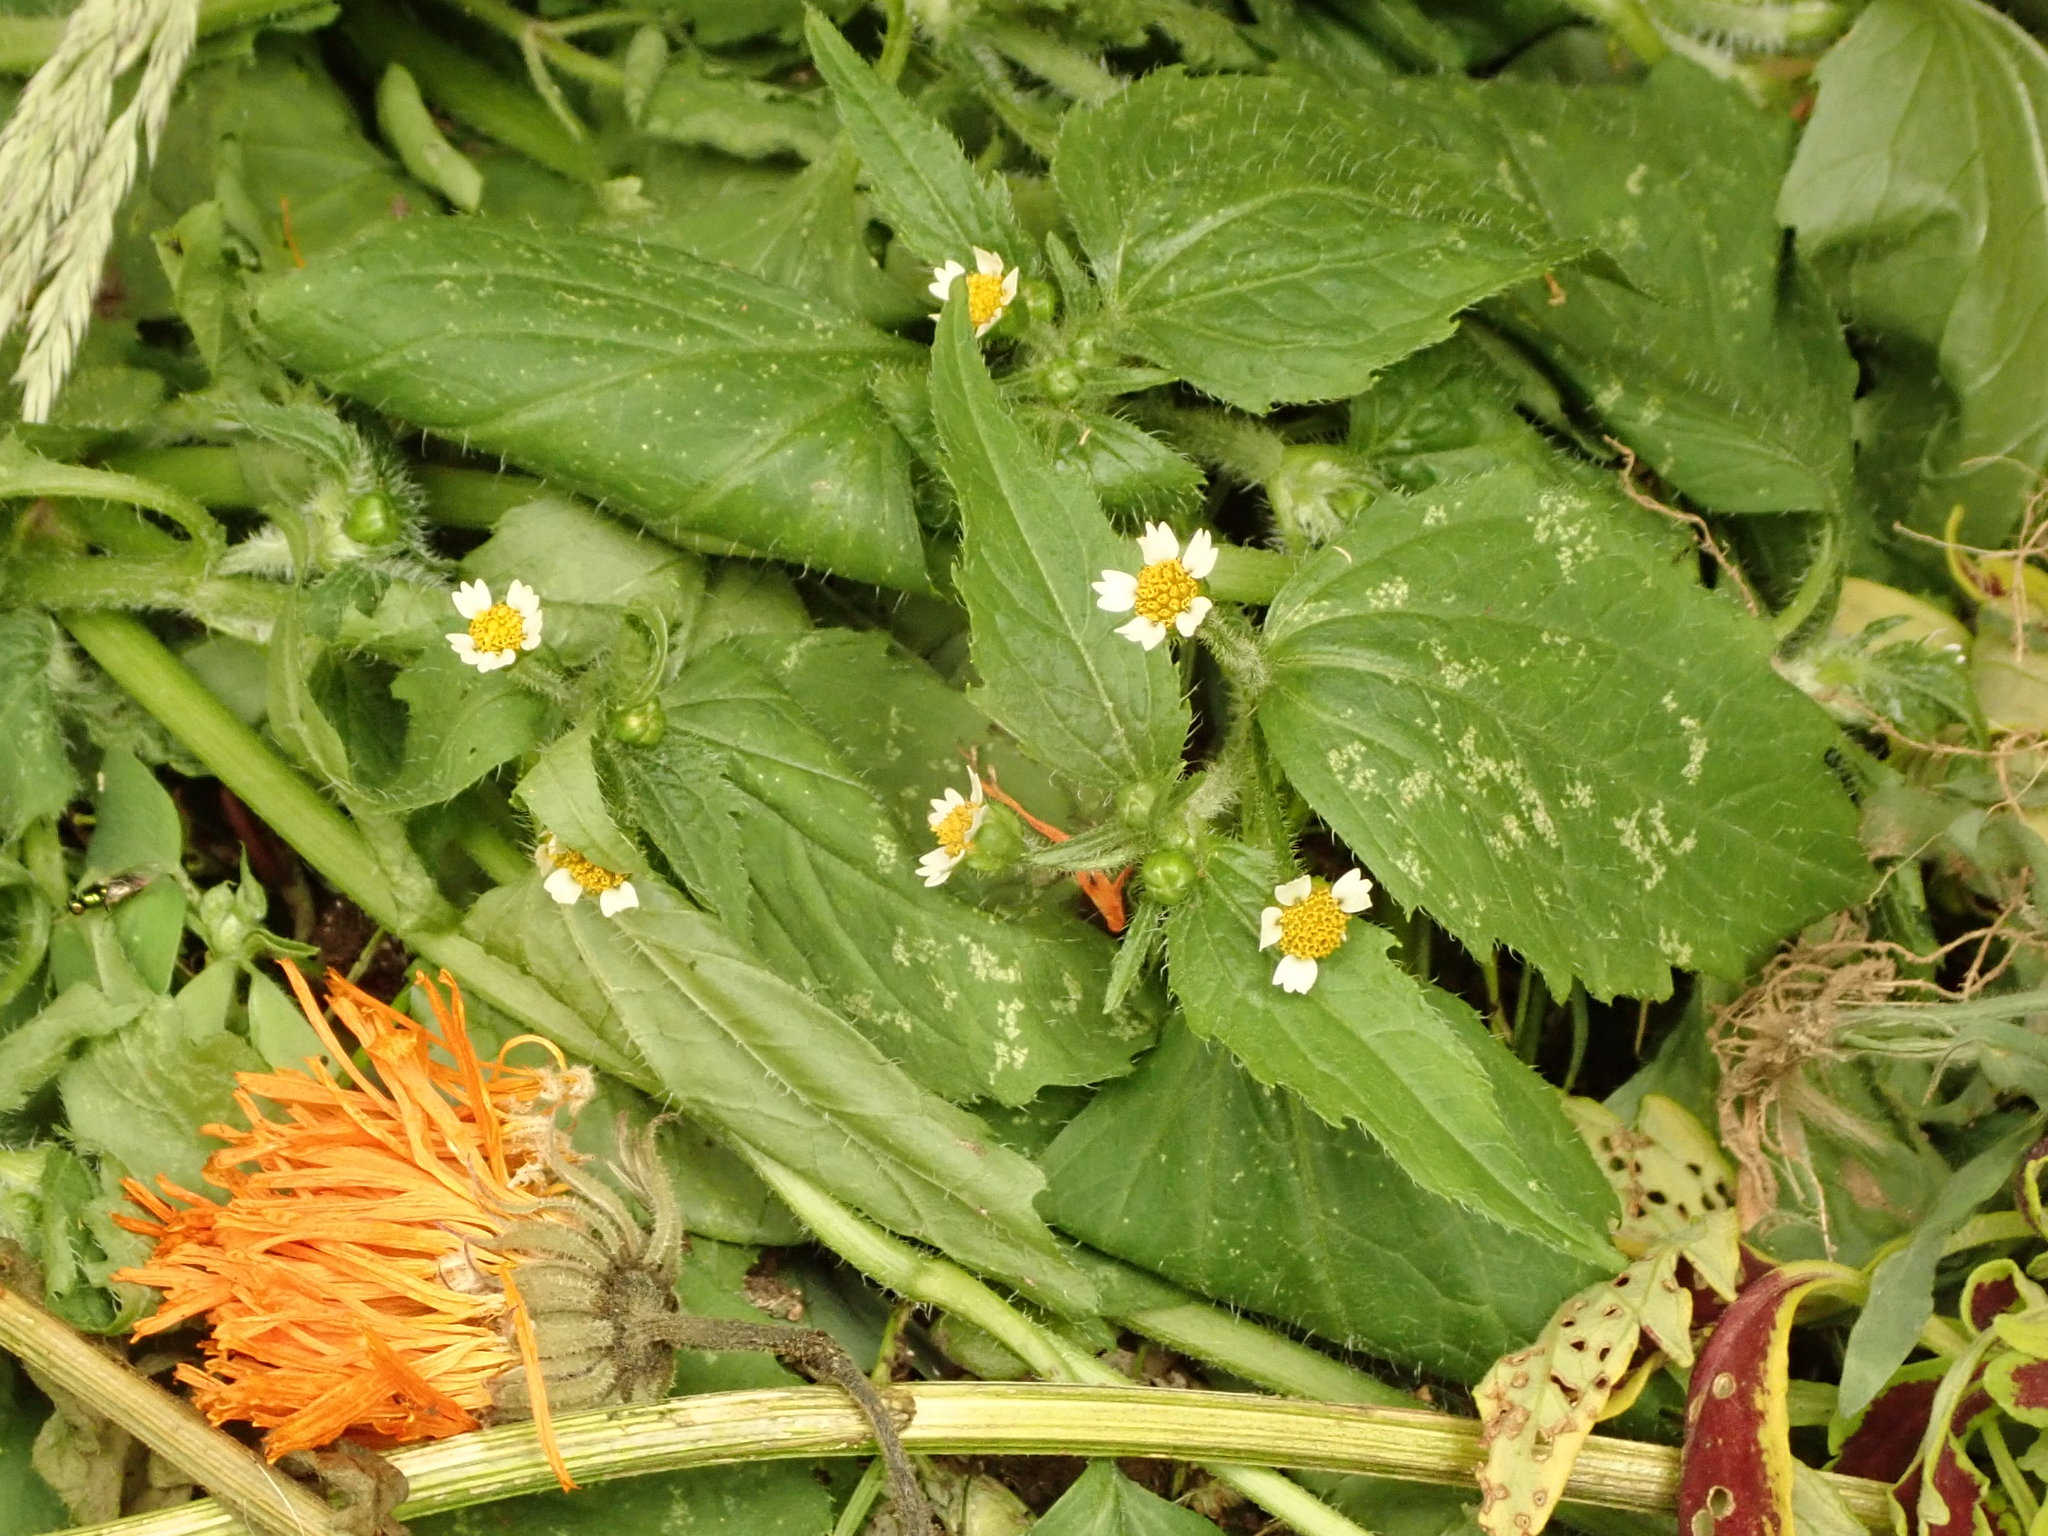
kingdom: Plantae
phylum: Tracheophyta
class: Magnoliopsida
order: Asterales
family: Asteraceae
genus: Galinsoga
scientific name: Galinsoga quadriradiata
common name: Shaggy soldier
